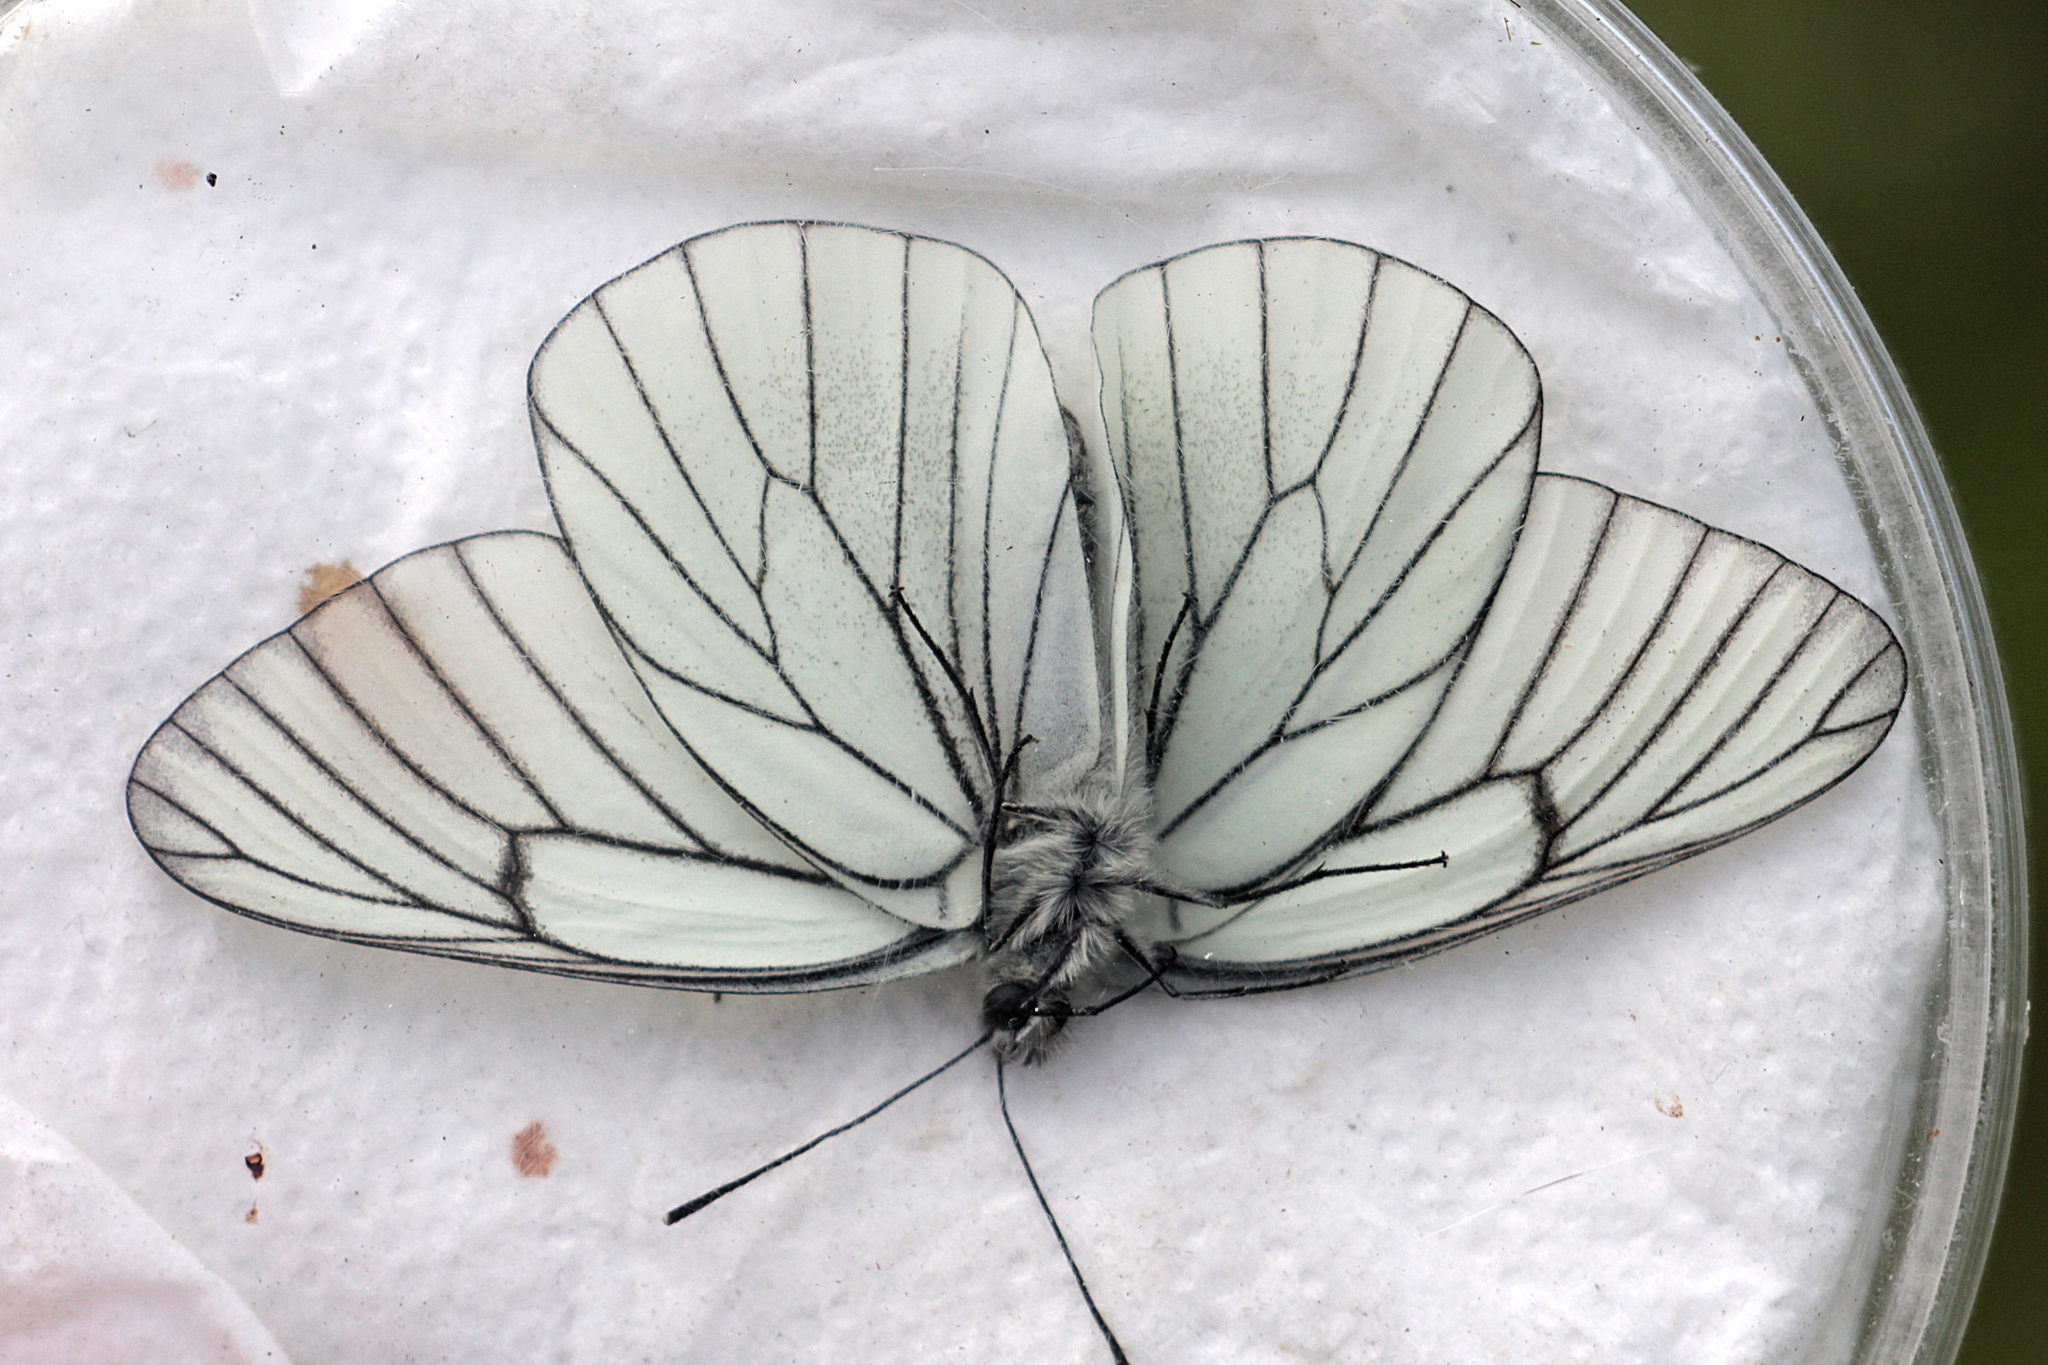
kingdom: Animalia
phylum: Arthropoda
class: Insecta
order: Lepidoptera
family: Pieridae
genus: Aporia
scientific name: Aporia crataegi
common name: Black-veined white
